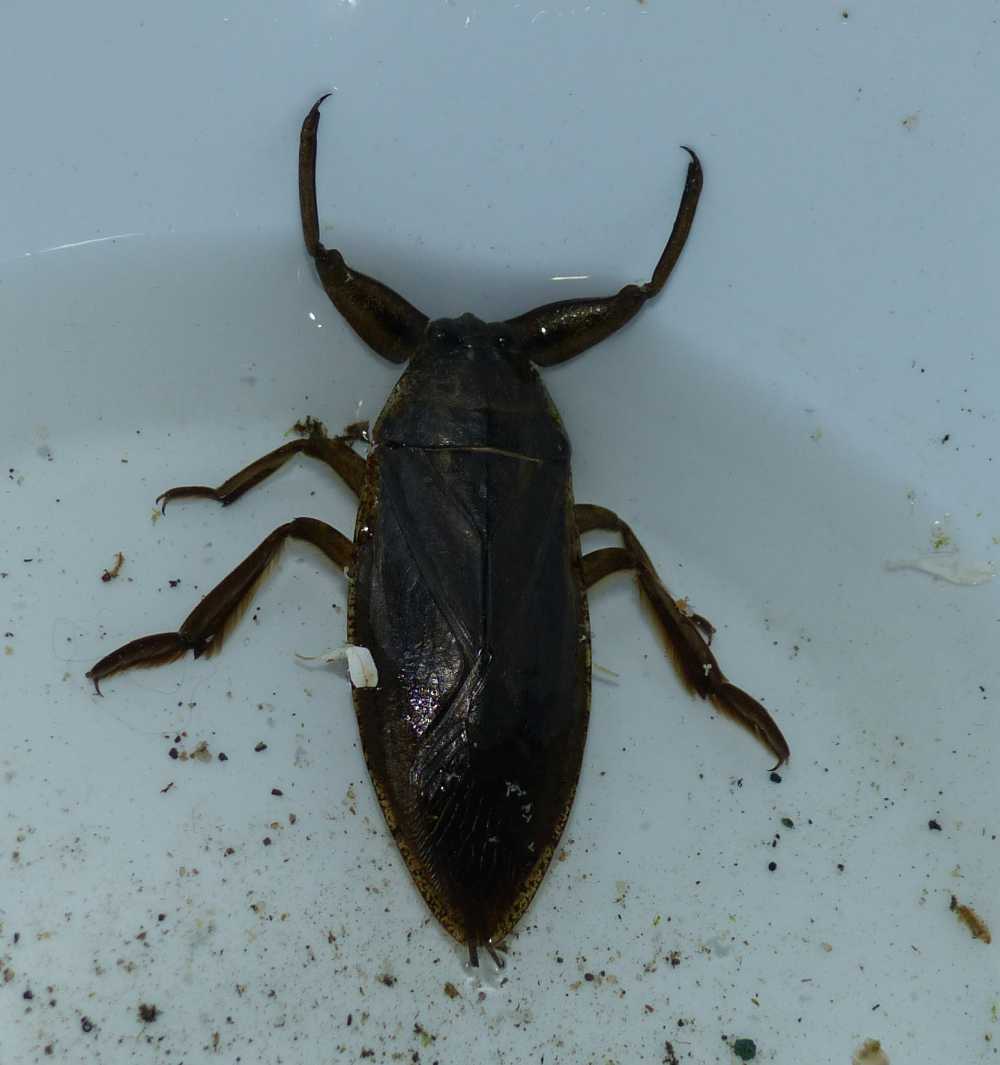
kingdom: Animalia
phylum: Arthropoda
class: Insecta
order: Hemiptera
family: Belostomatidae
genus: Lethocerus
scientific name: Lethocerus americanus
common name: Giant water bug
